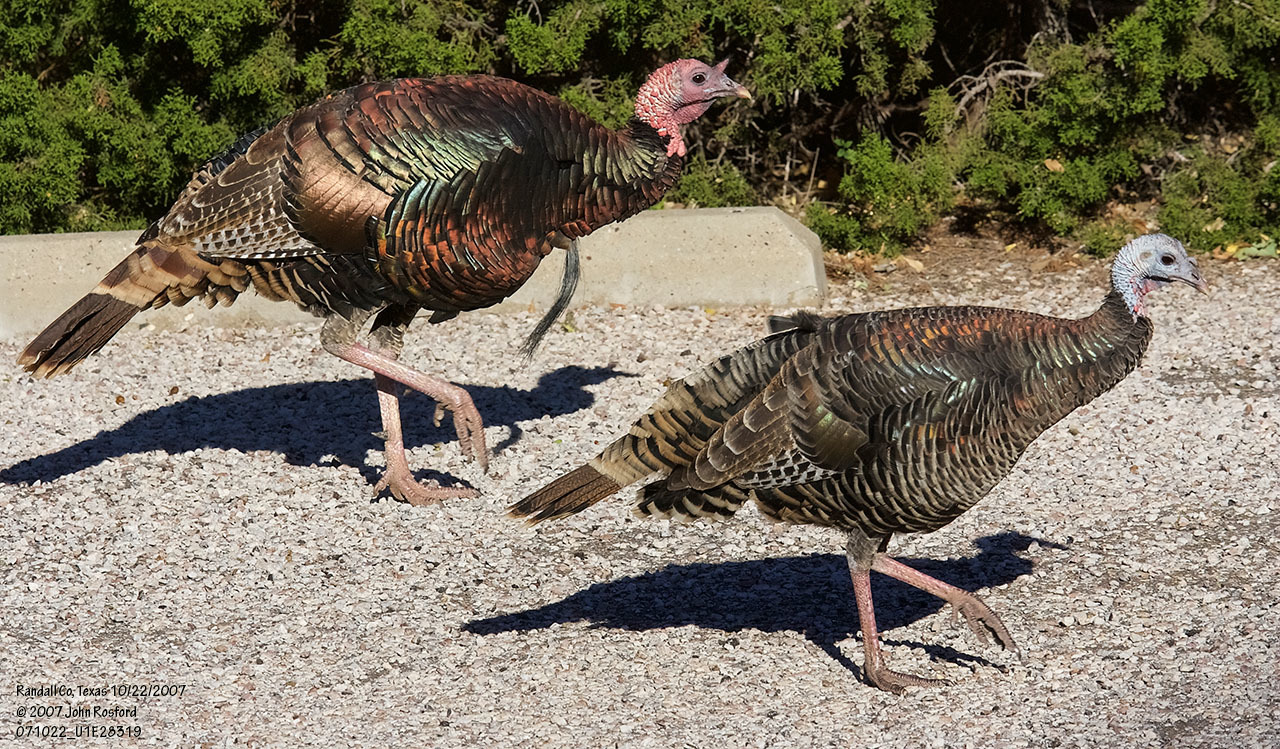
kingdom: Animalia
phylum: Chordata
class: Aves
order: Galliformes
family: Phasianidae
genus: Meleagris
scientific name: Meleagris gallopavo
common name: Wild turkey
